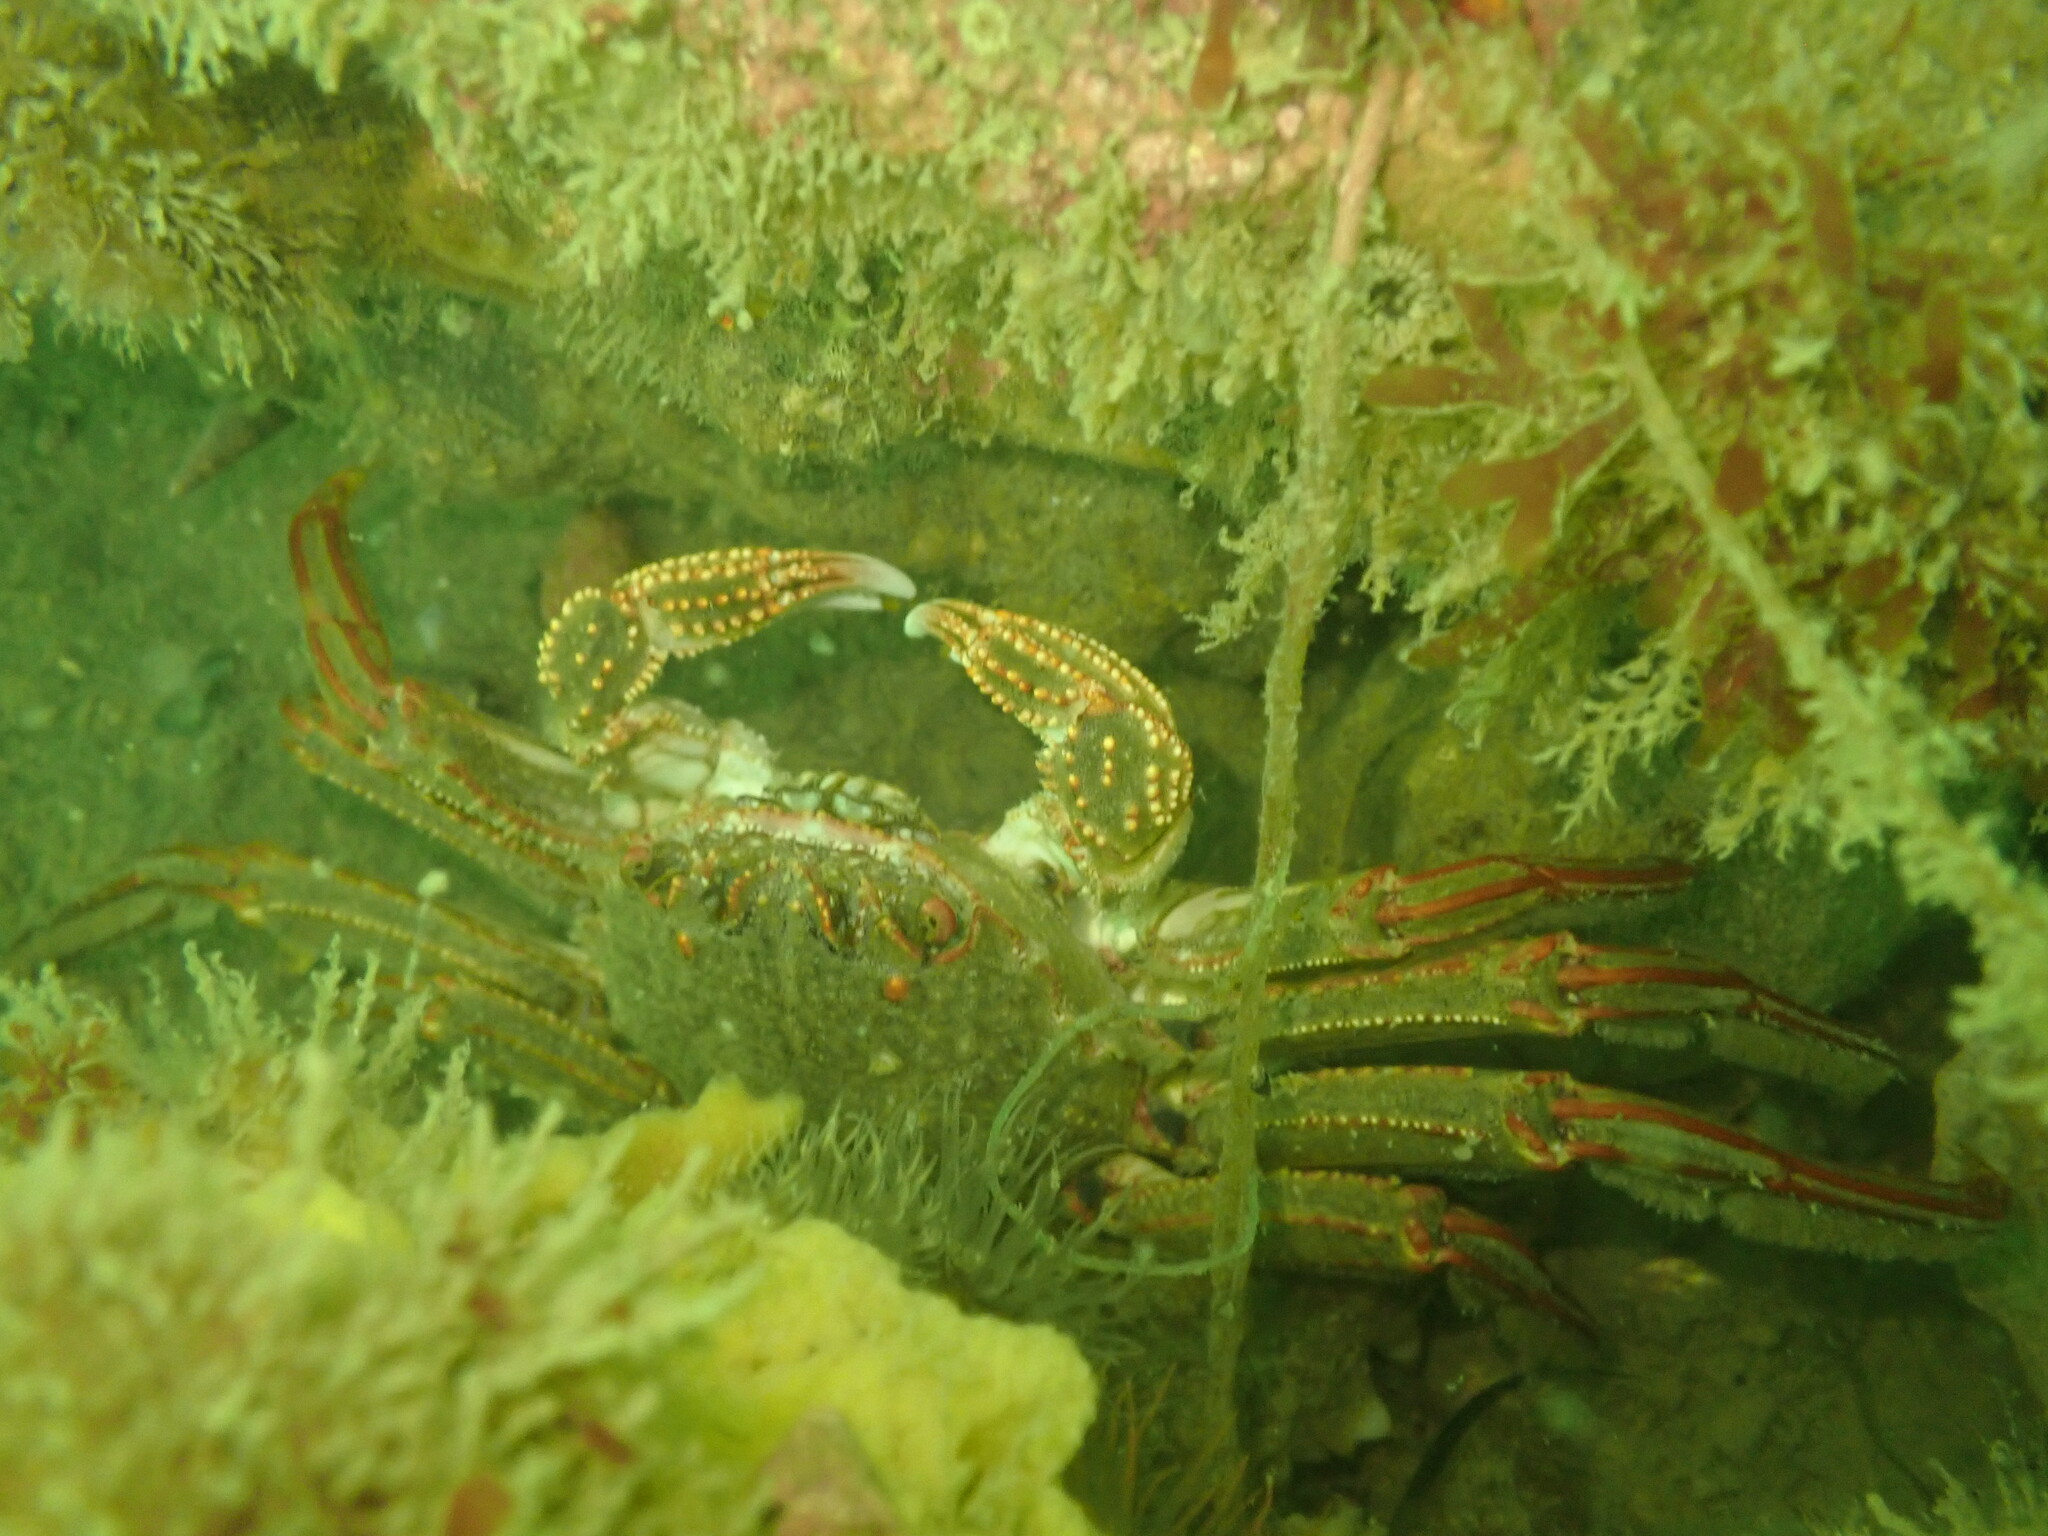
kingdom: Animalia
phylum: Arthropoda
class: Malacostraca
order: Decapoda
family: Plagusiidae
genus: Guinusia
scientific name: Guinusia chabrus
